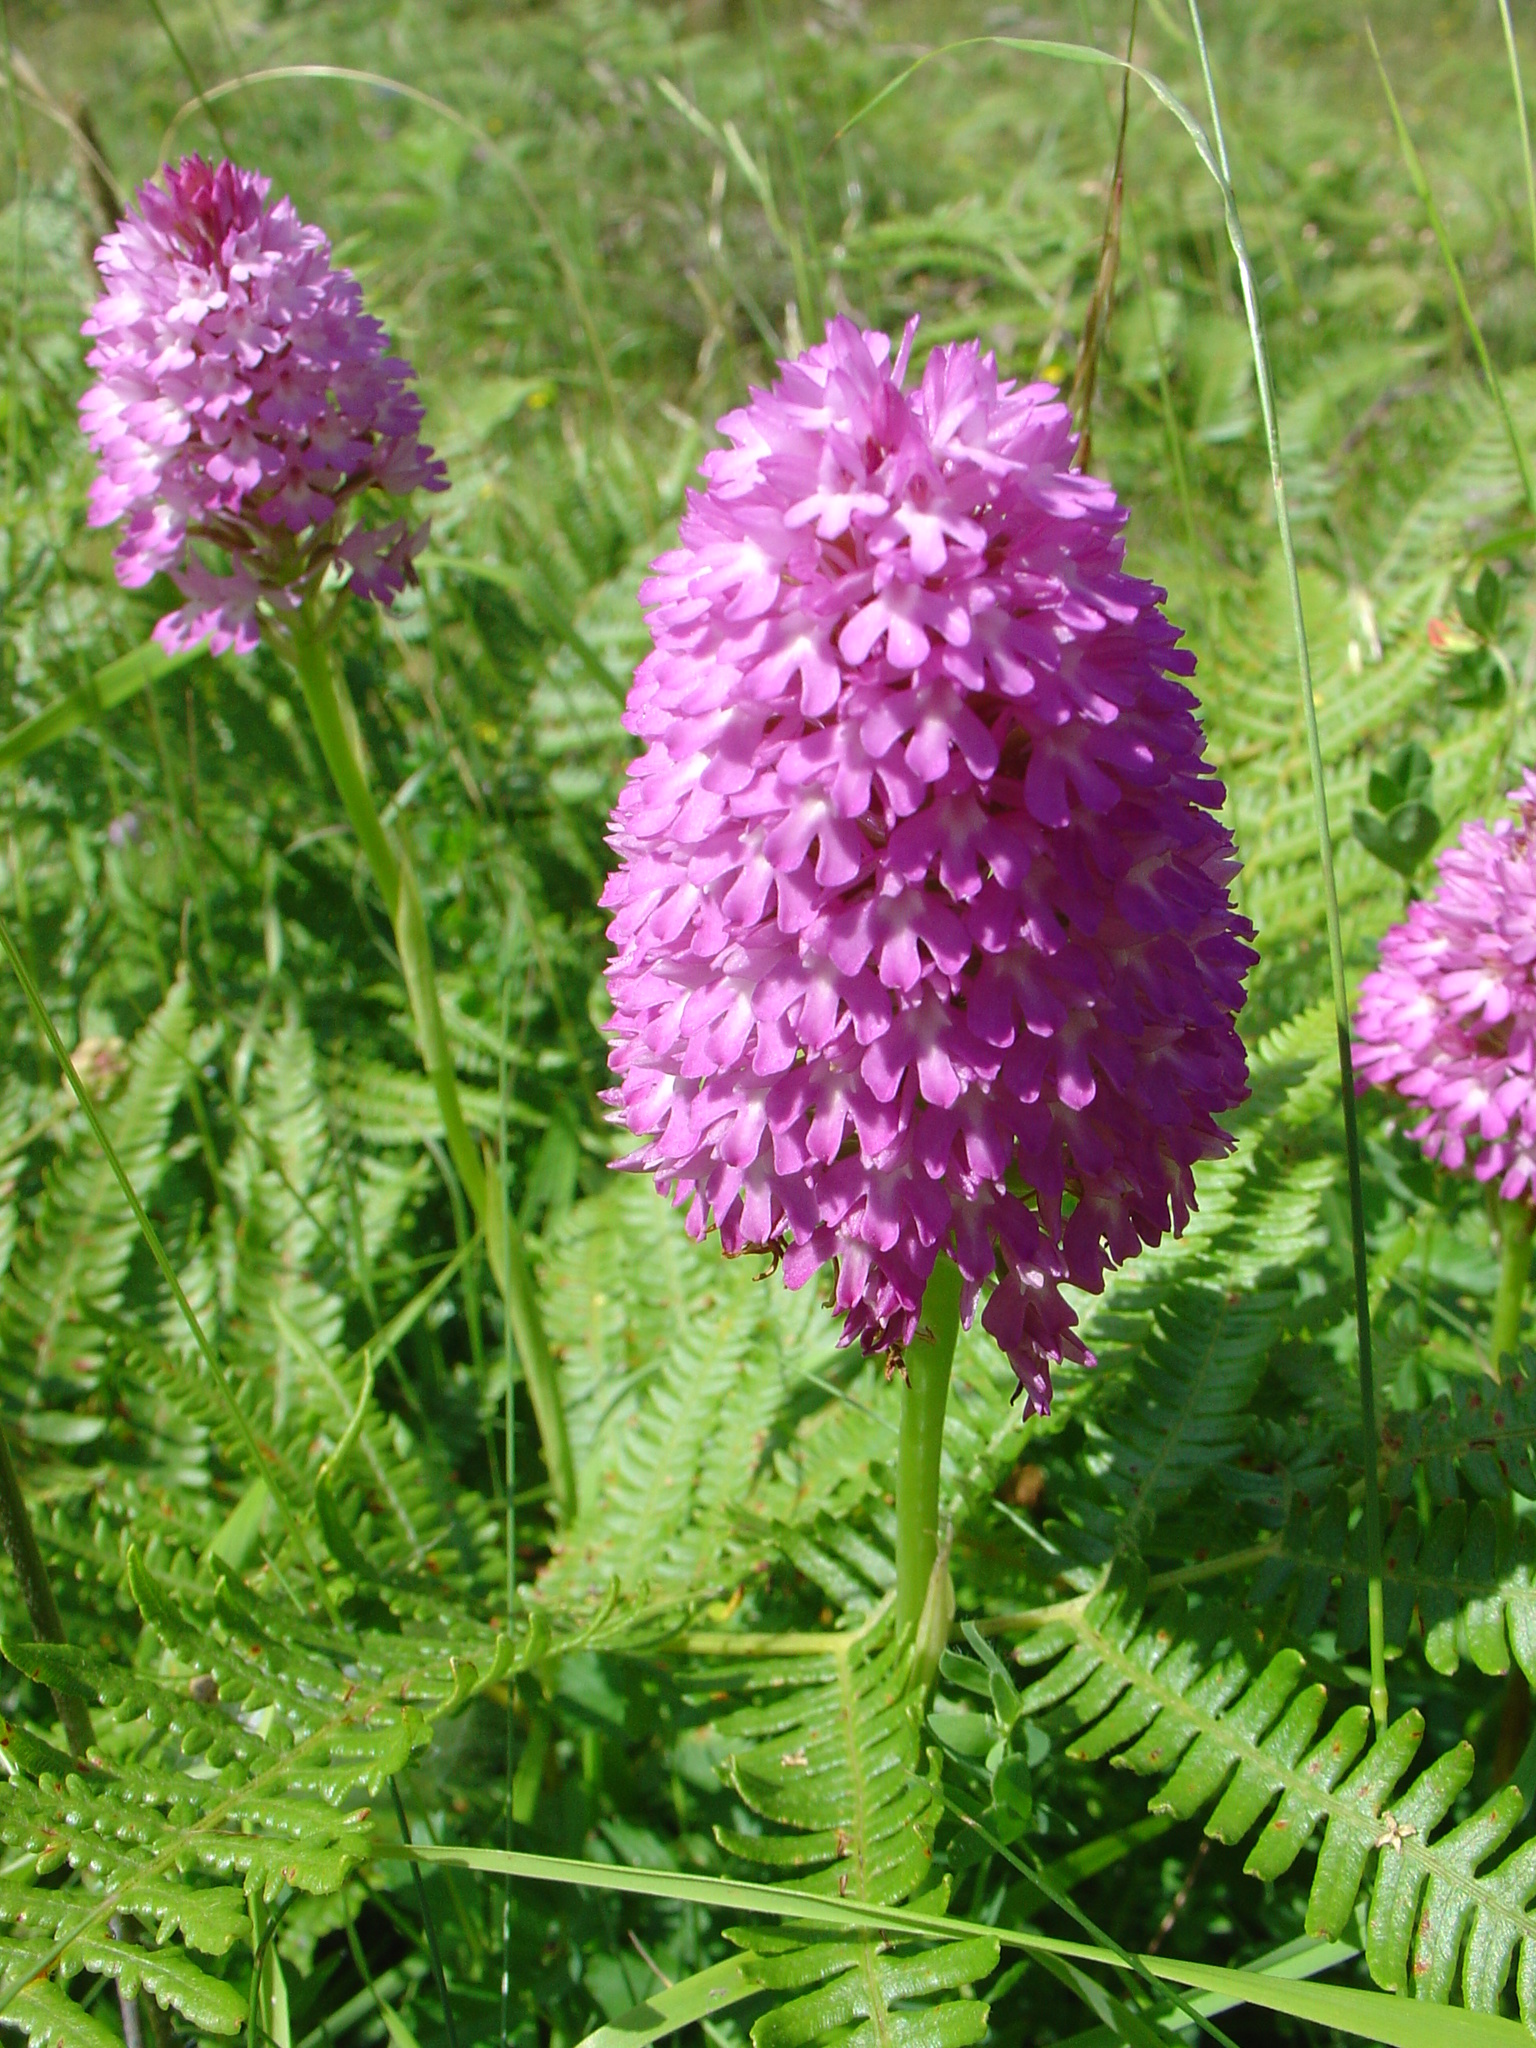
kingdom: Plantae
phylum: Tracheophyta
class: Liliopsida
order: Asparagales
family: Orchidaceae
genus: Anacamptis
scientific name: Anacamptis pyramidalis
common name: Pyramidal orchid
